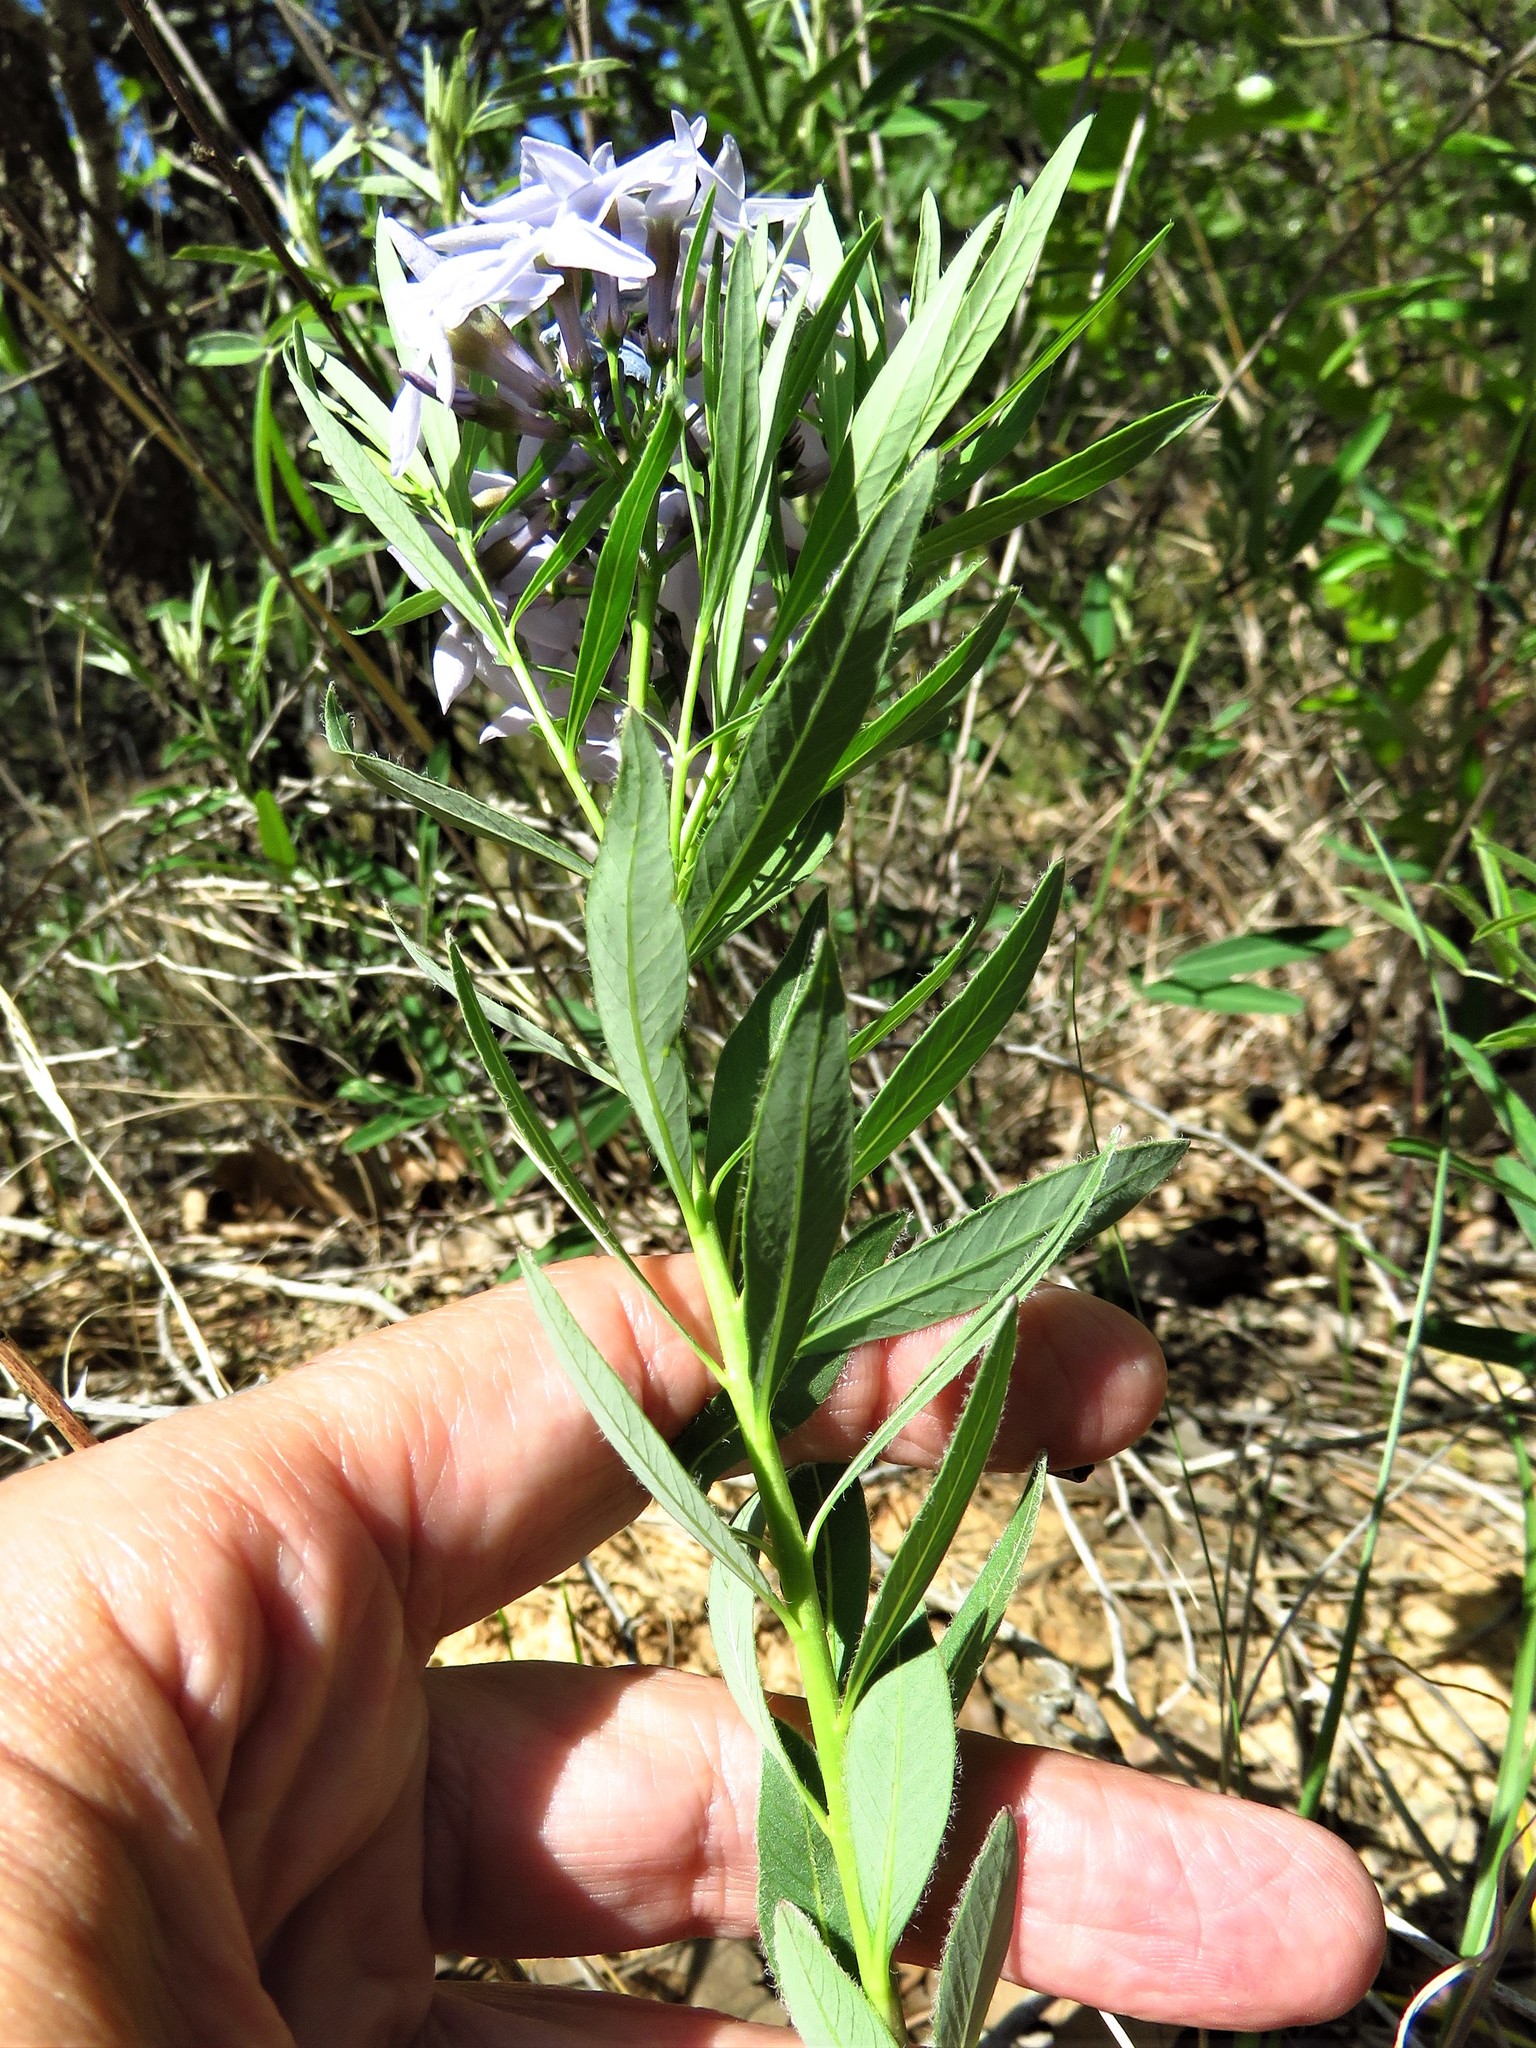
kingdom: Plantae
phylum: Tracheophyta
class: Magnoliopsida
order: Gentianales
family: Apocynaceae
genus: Amsonia
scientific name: Amsonia ciliata
